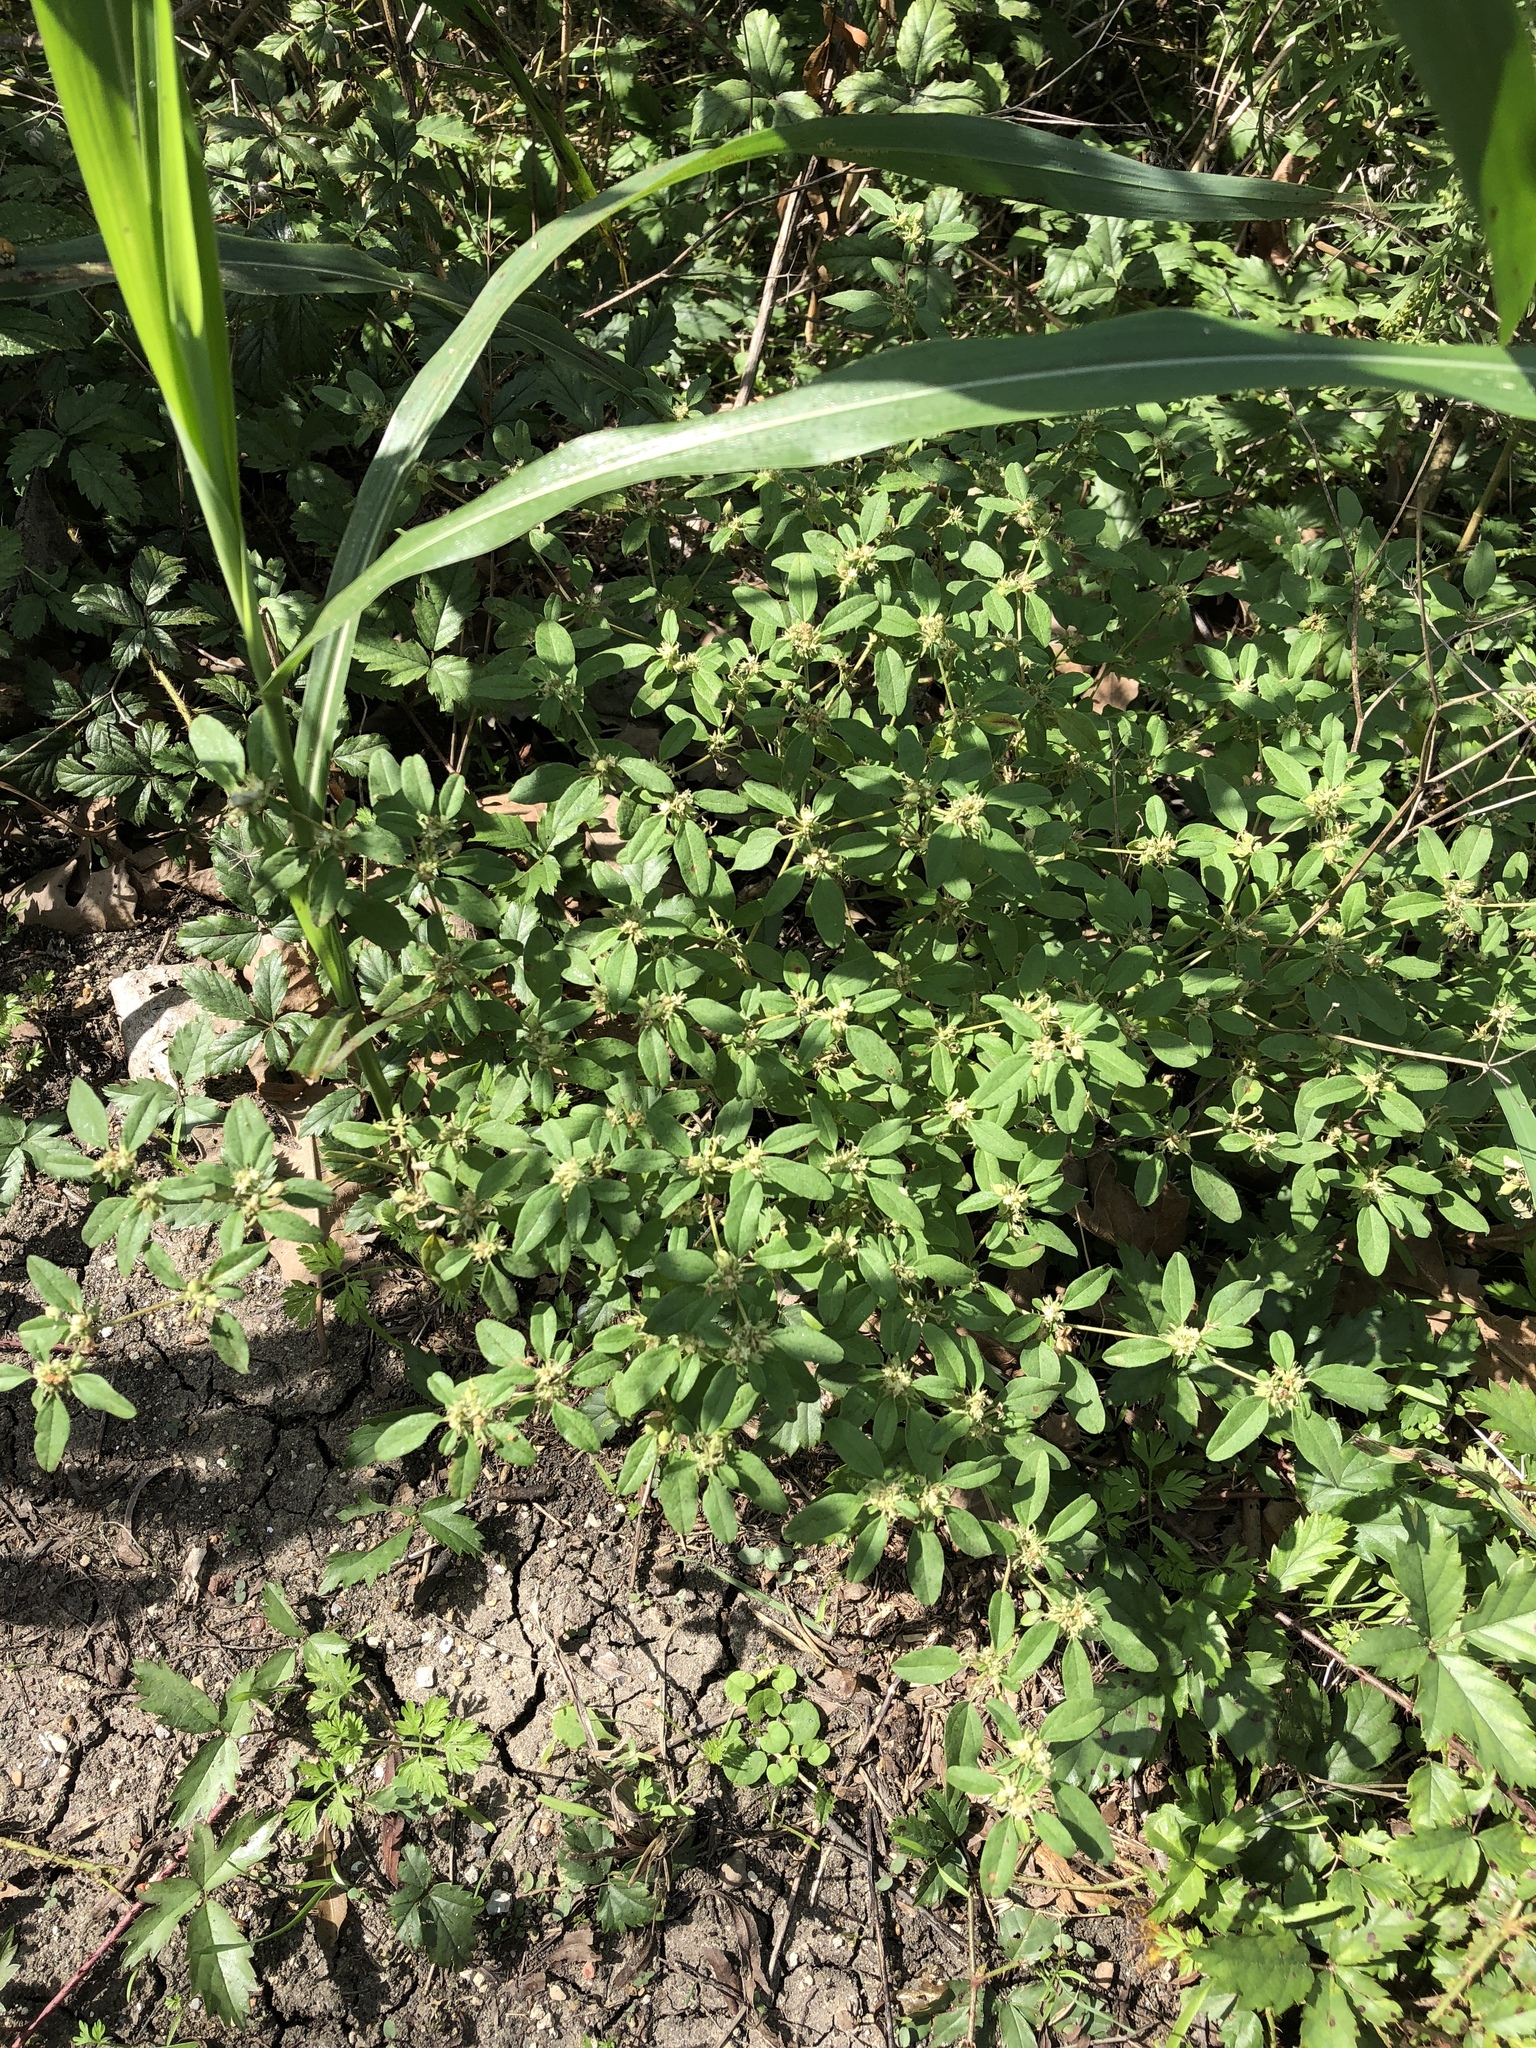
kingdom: Plantae
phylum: Tracheophyta
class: Magnoliopsida
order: Malpighiales
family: Euphorbiaceae
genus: Croton
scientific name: Croton monanthogynus
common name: One-seed croton
